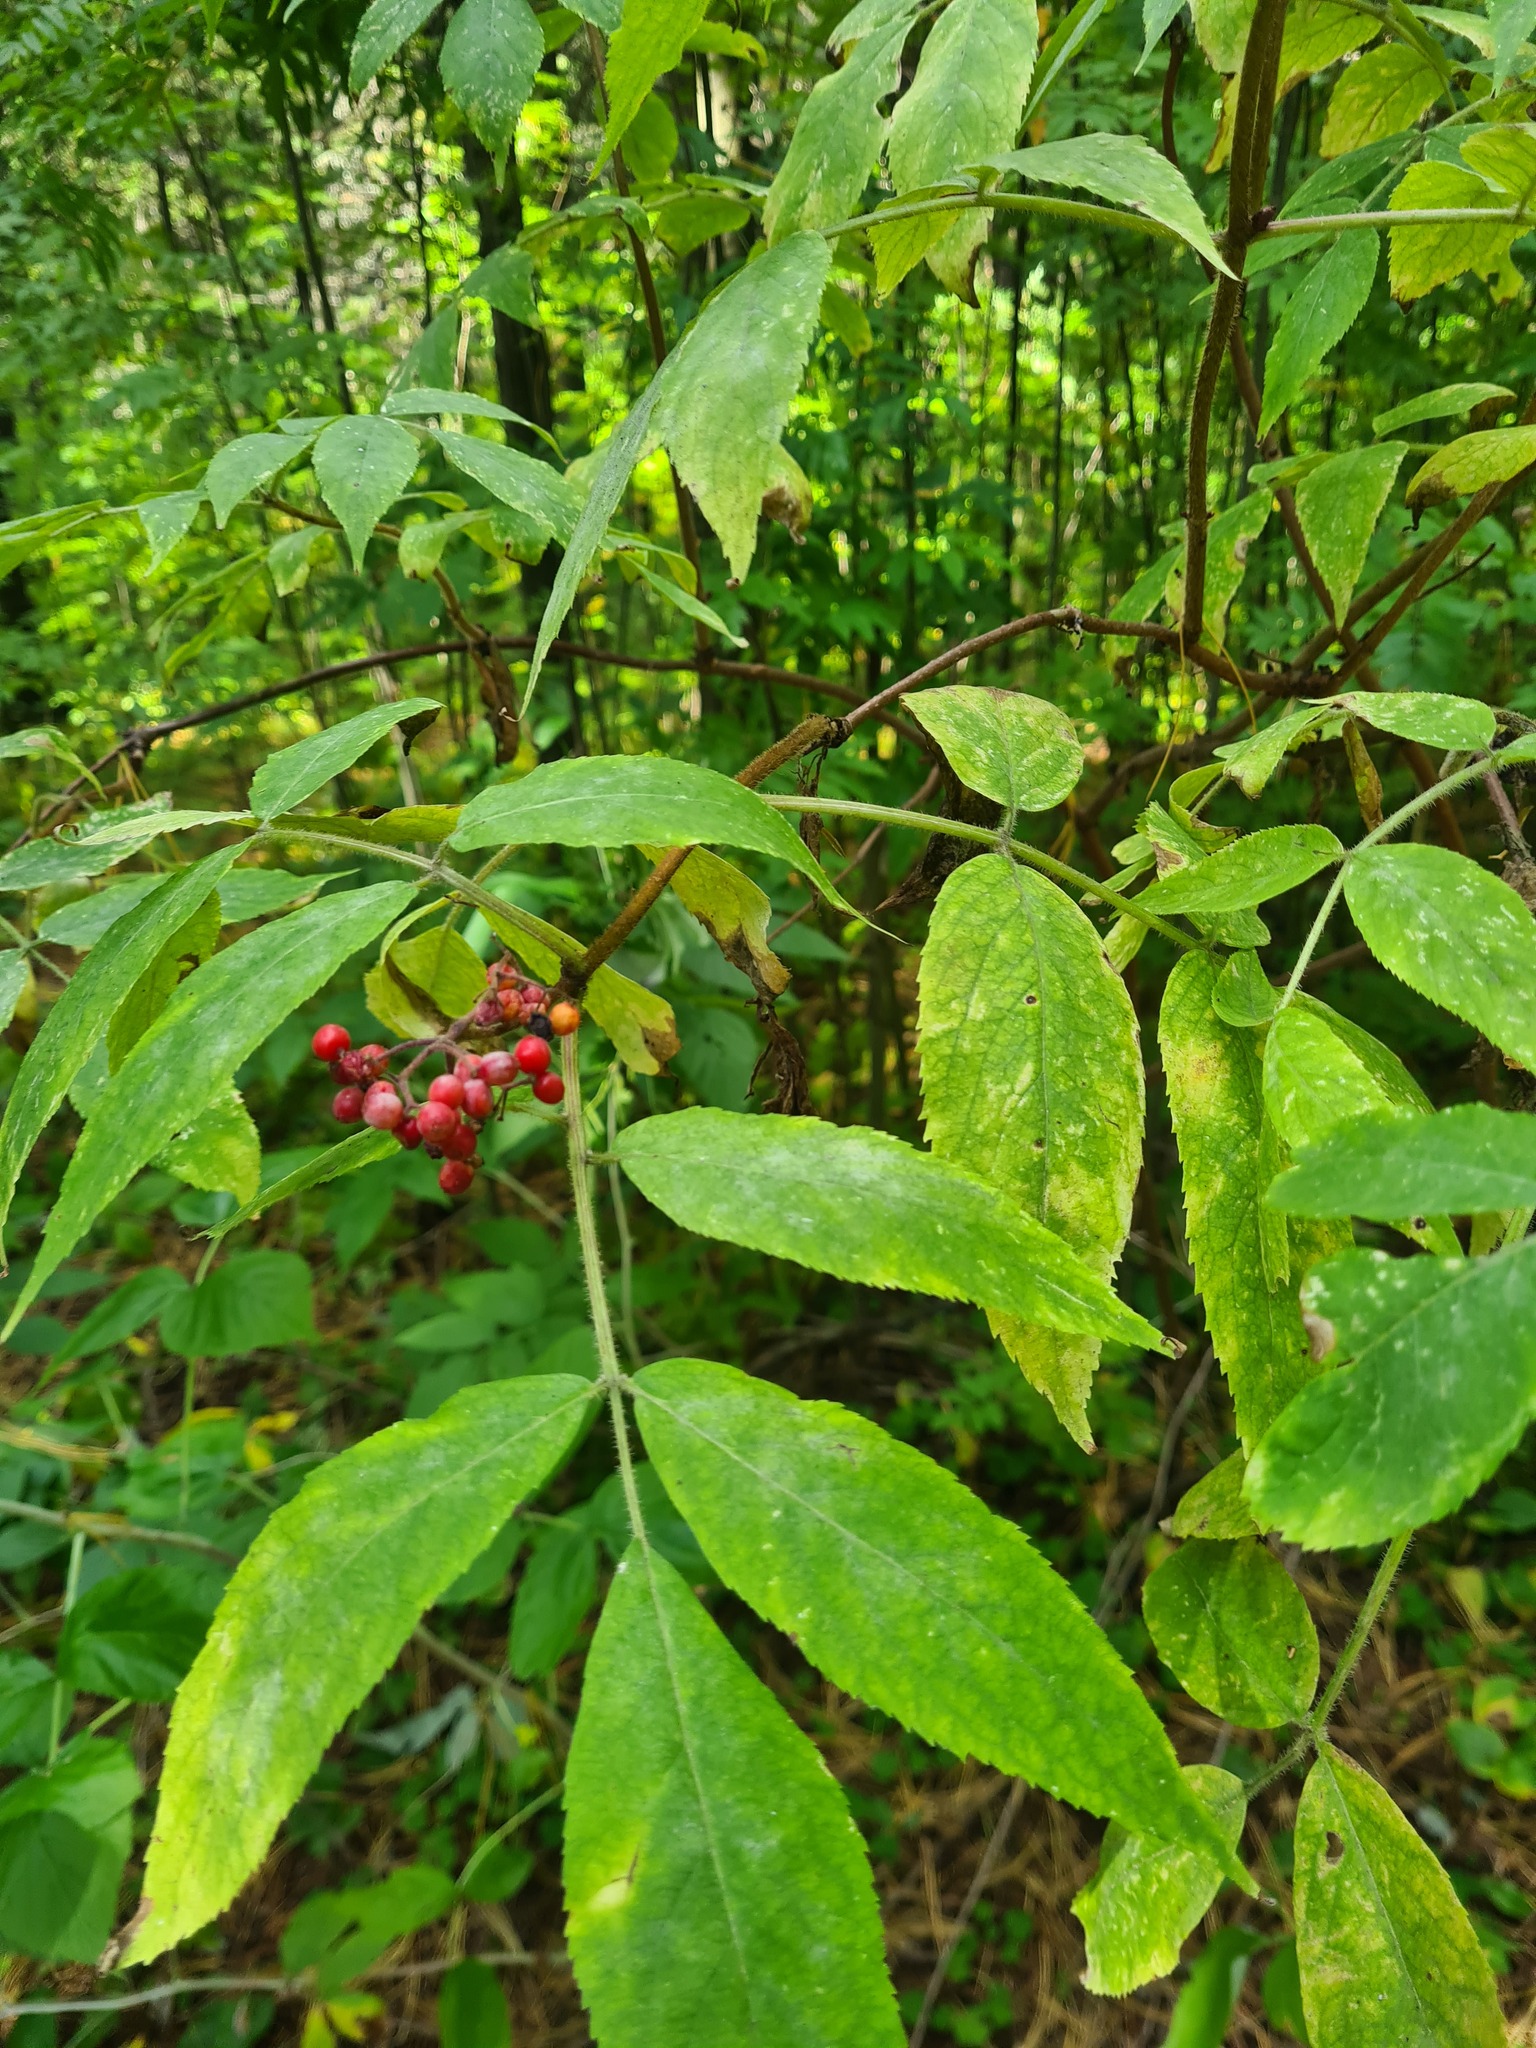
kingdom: Plantae
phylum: Tracheophyta
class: Magnoliopsida
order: Dipsacales
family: Viburnaceae
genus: Sambucus
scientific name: Sambucus sibirica
